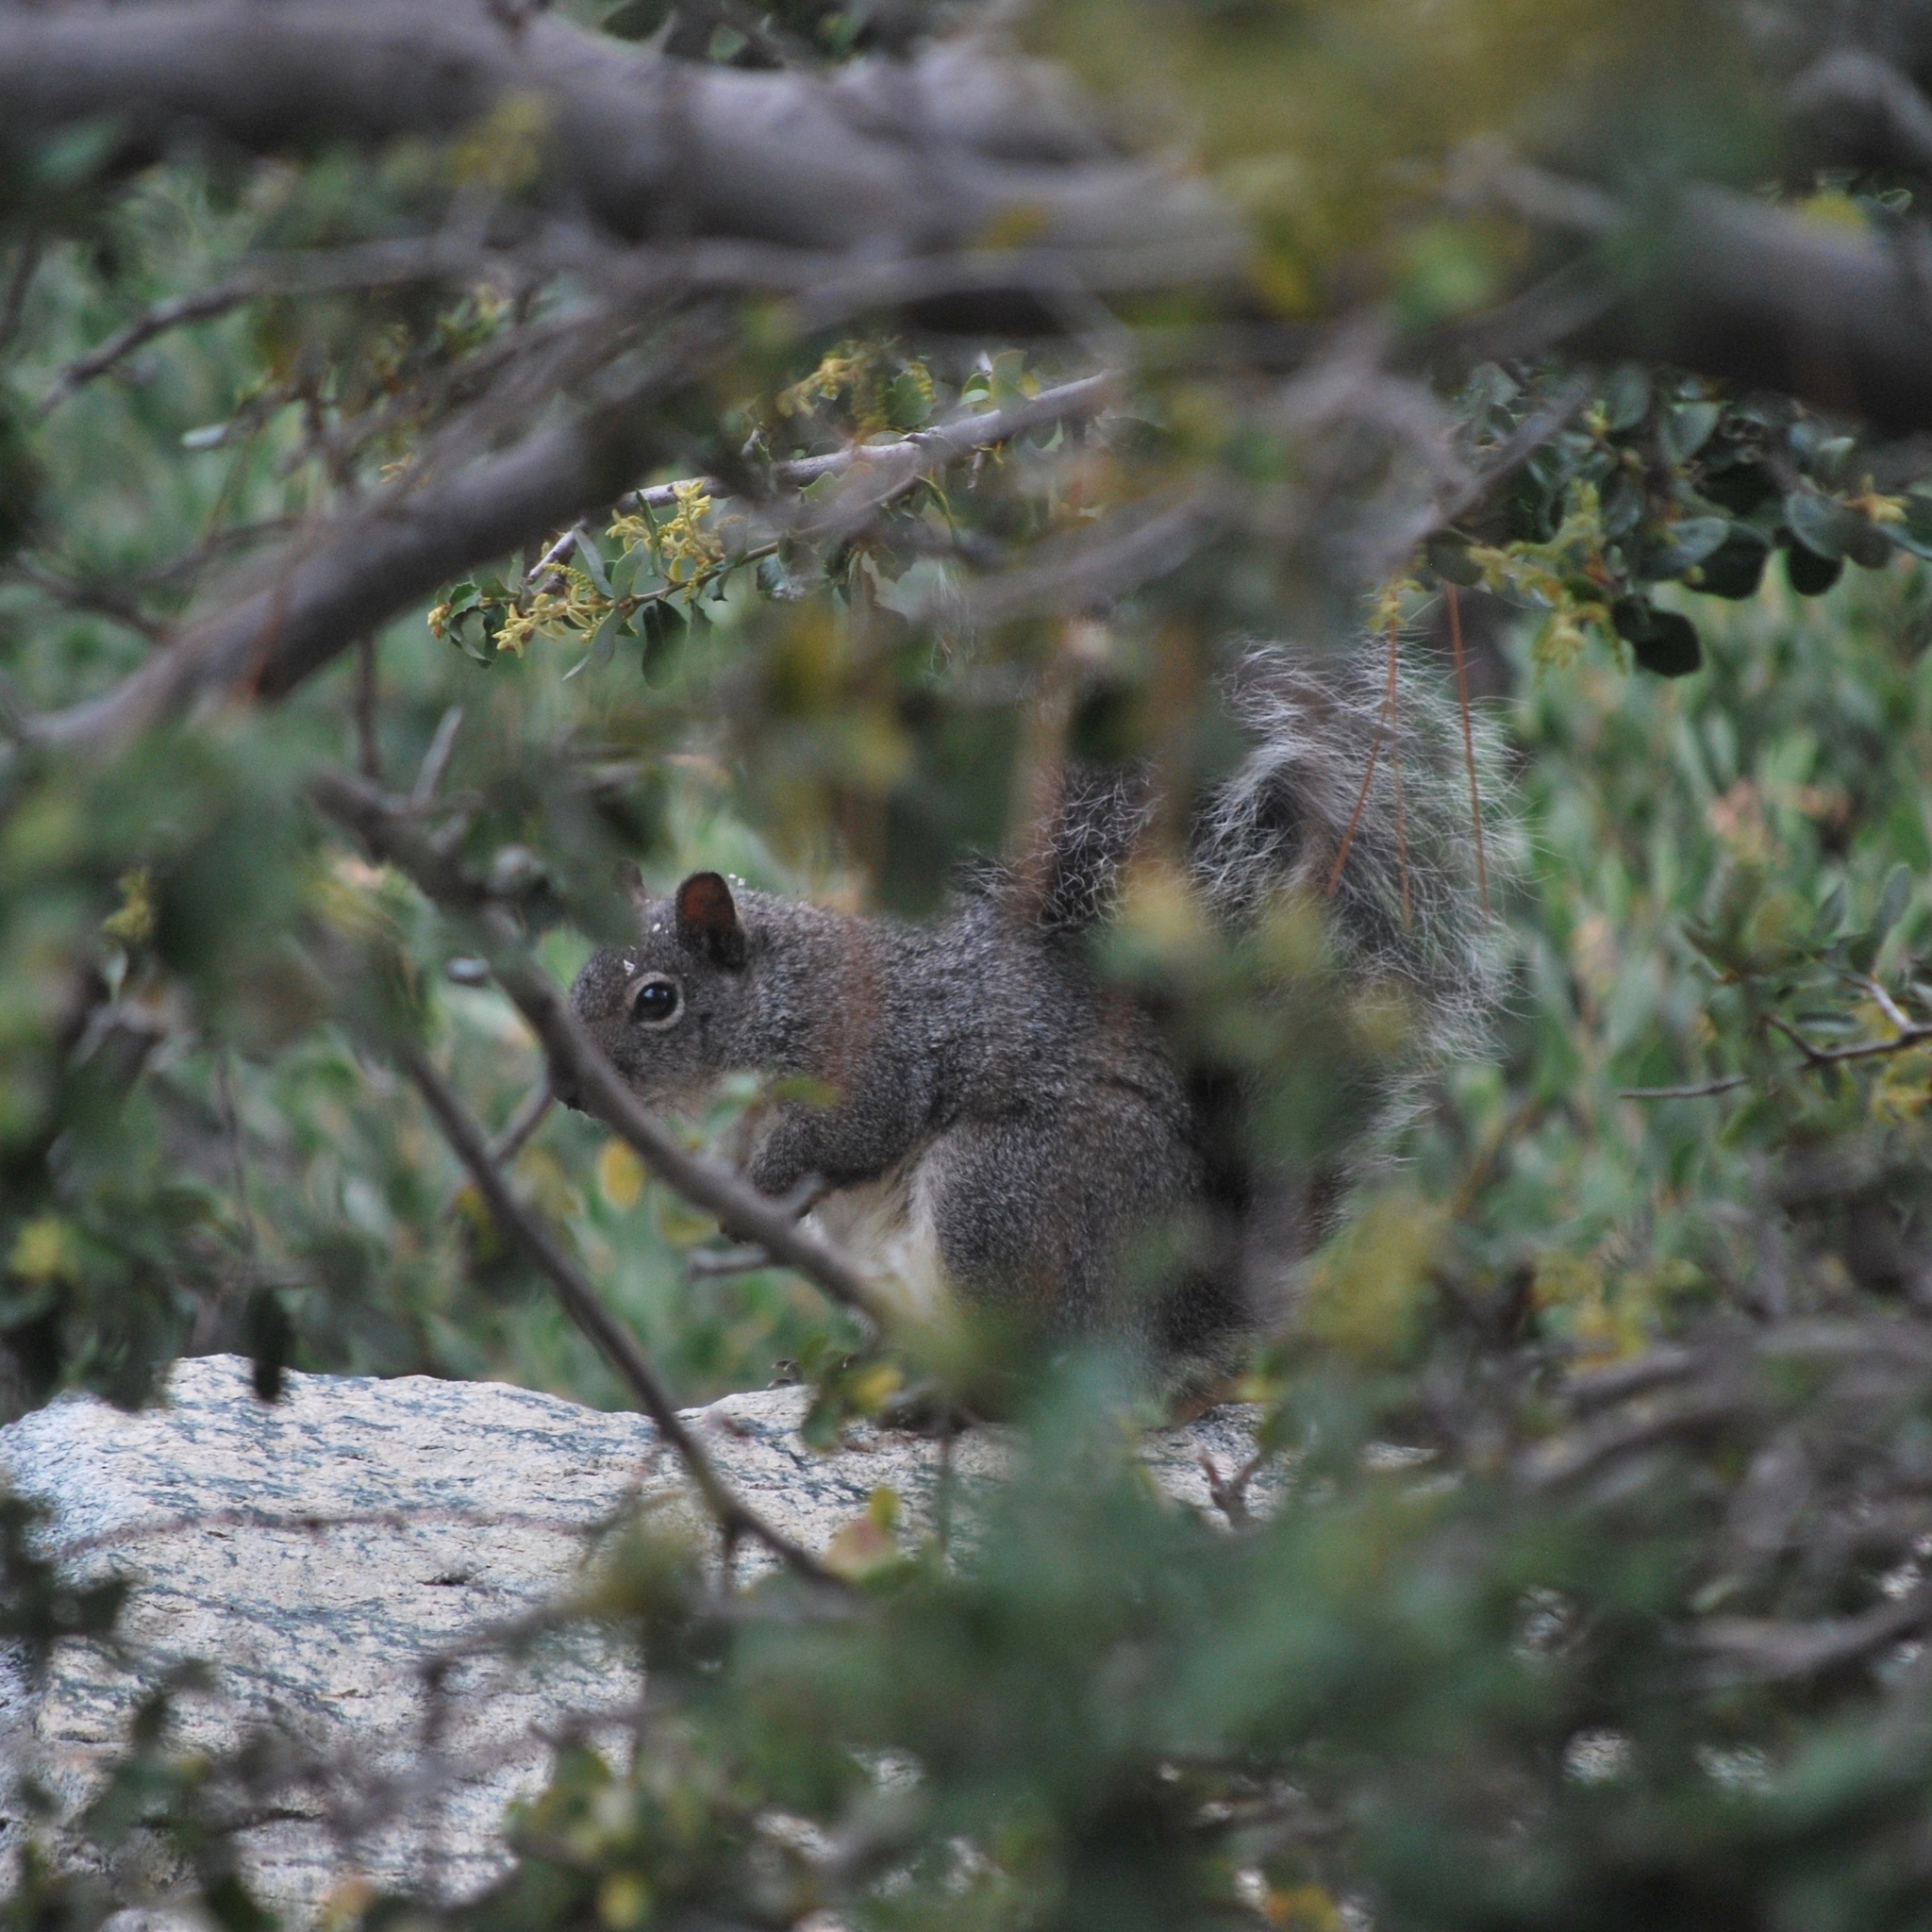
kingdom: Animalia
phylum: Chordata
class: Mammalia
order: Rodentia
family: Sciuridae
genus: Sciurus
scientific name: Sciurus griseus
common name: Western gray squirrel
